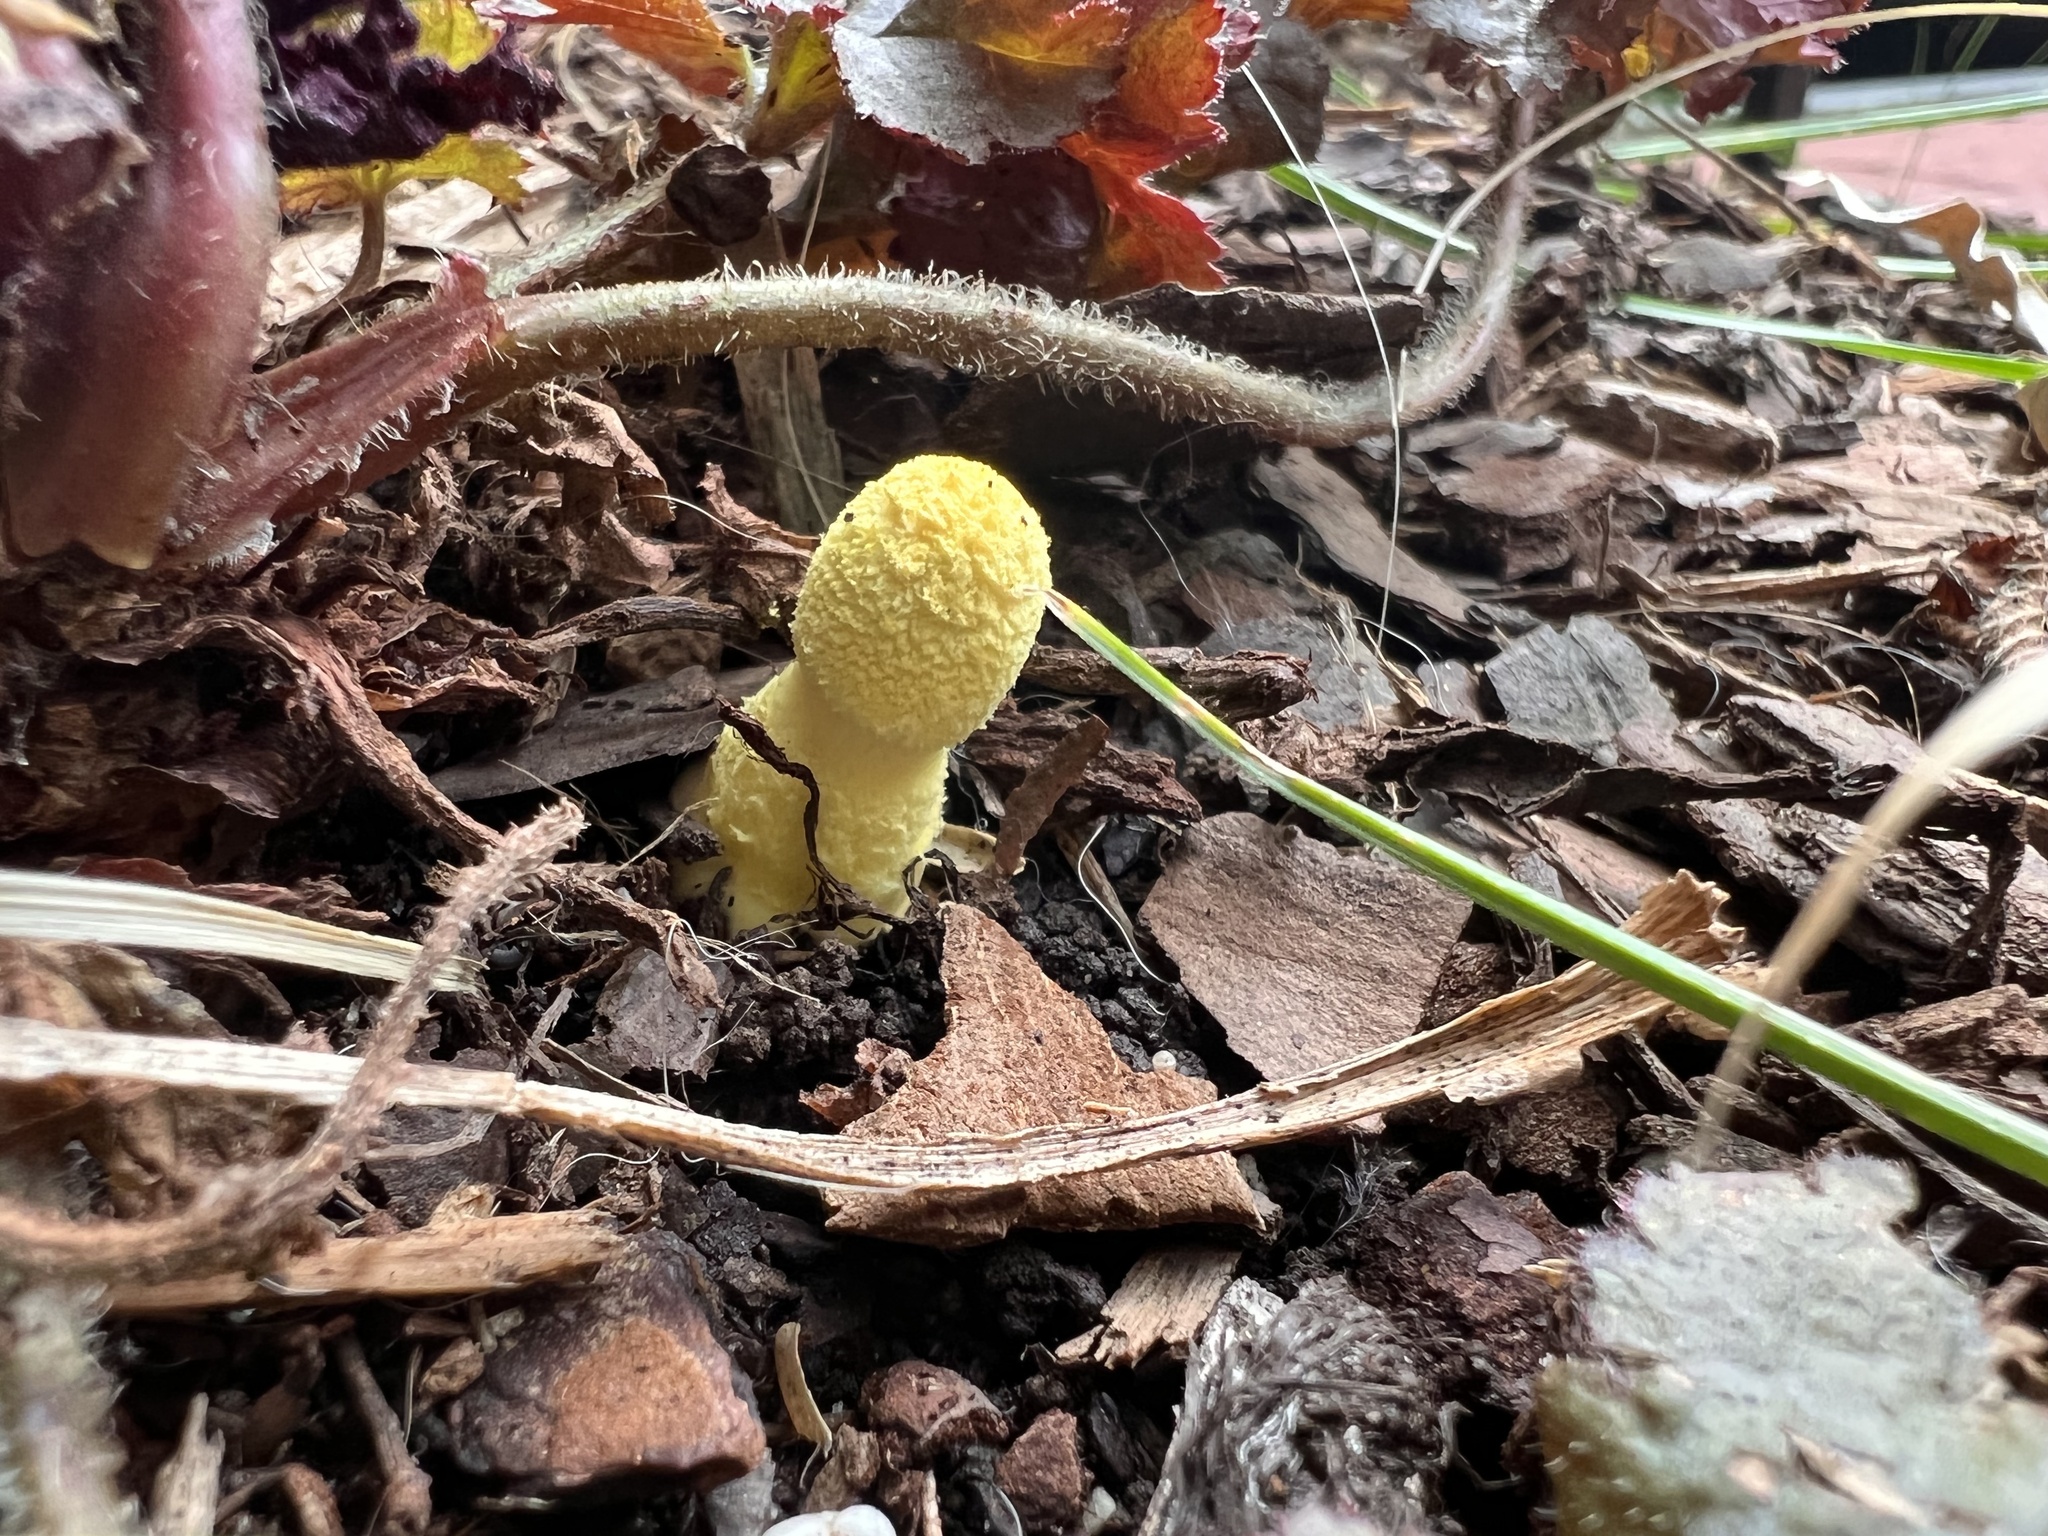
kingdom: Fungi
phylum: Basidiomycota
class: Agaricomycetes
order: Agaricales
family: Agaricaceae
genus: Leucocoprinus
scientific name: Leucocoprinus birnbaumii
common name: Plantpot dapperling
